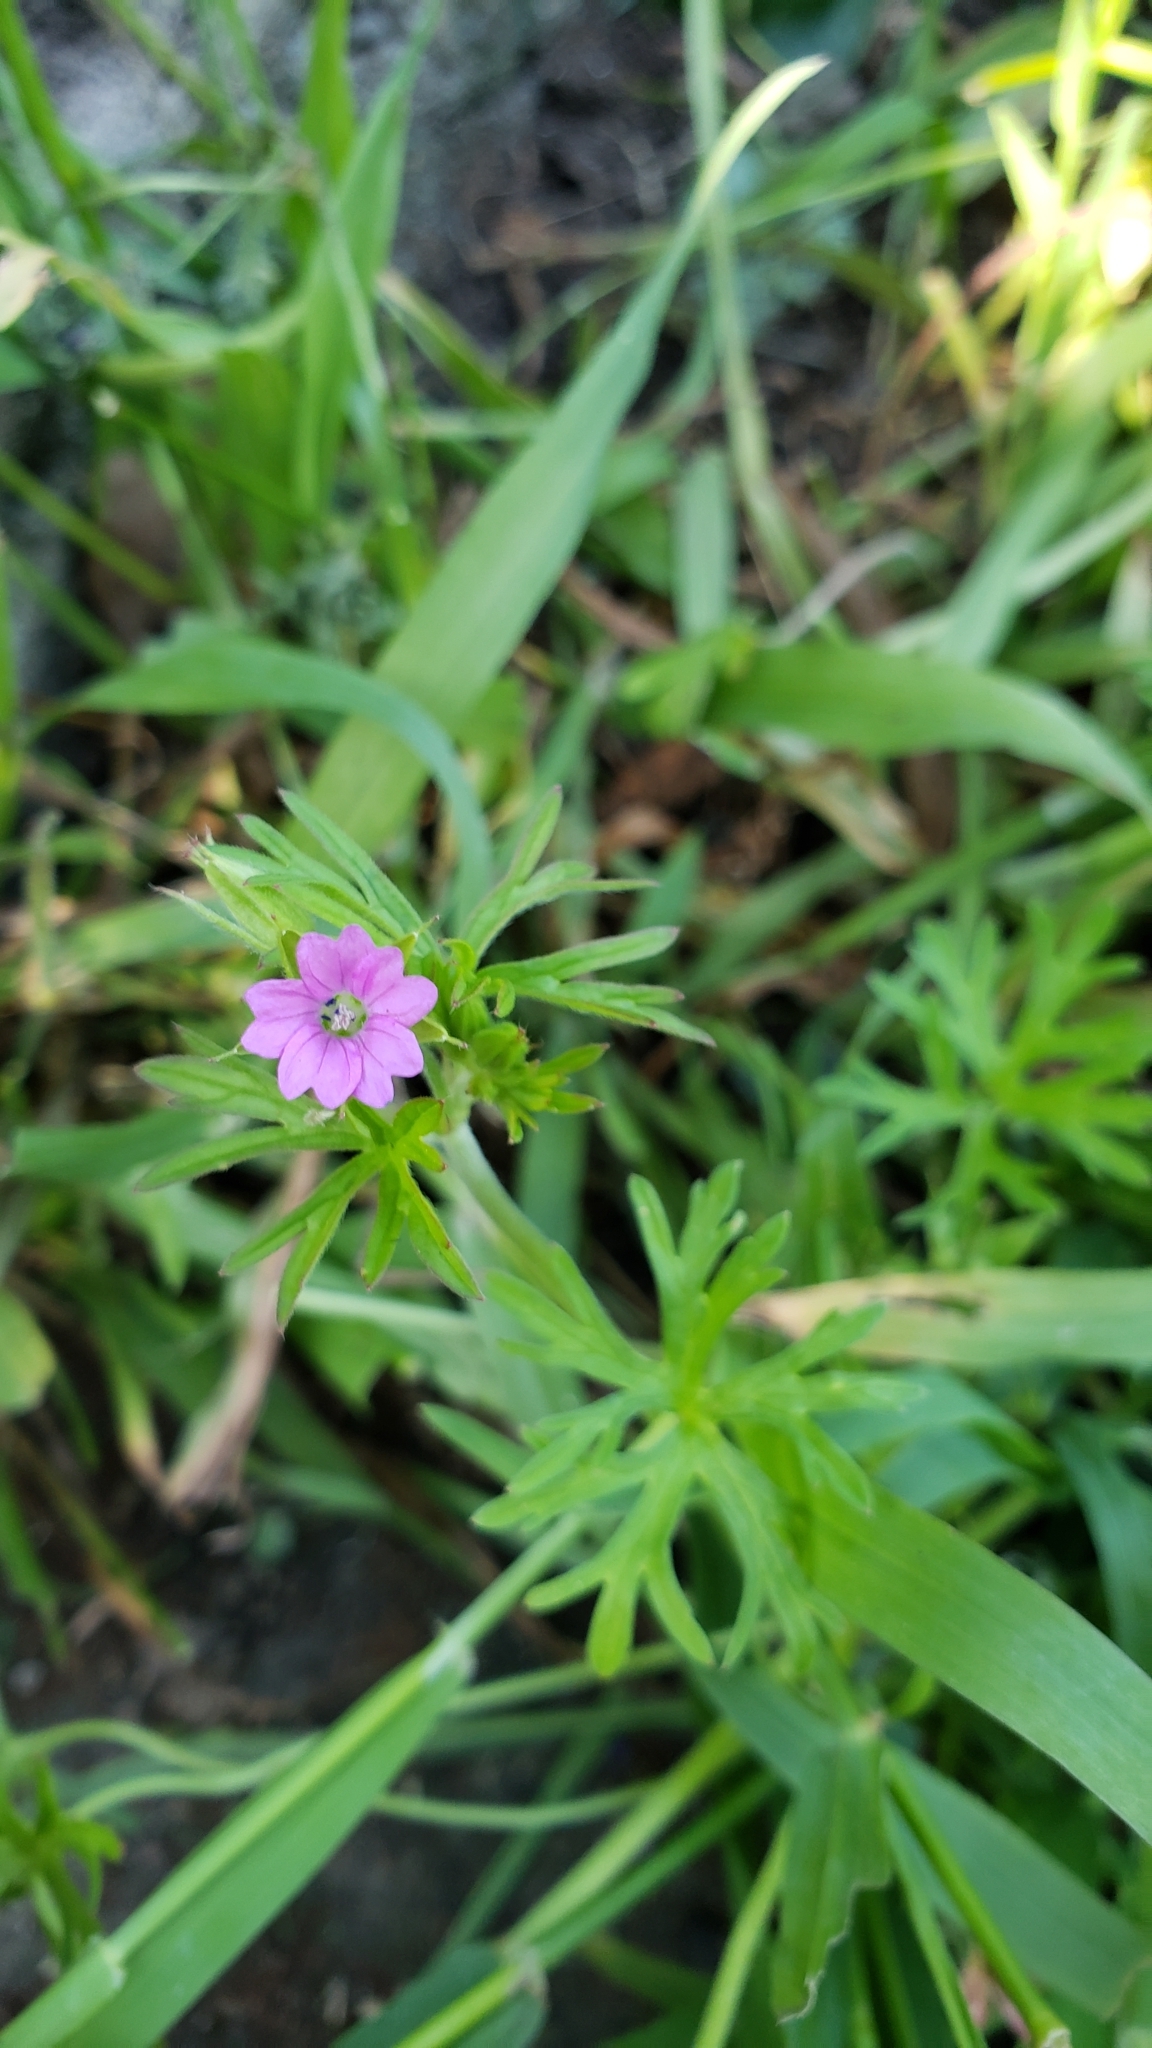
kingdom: Plantae
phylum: Tracheophyta
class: Magnoliopsida
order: Geraniales
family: Geraniaceae
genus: Geranium
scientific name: Geranium dissectum
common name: Cut-leaved crane's-bill
